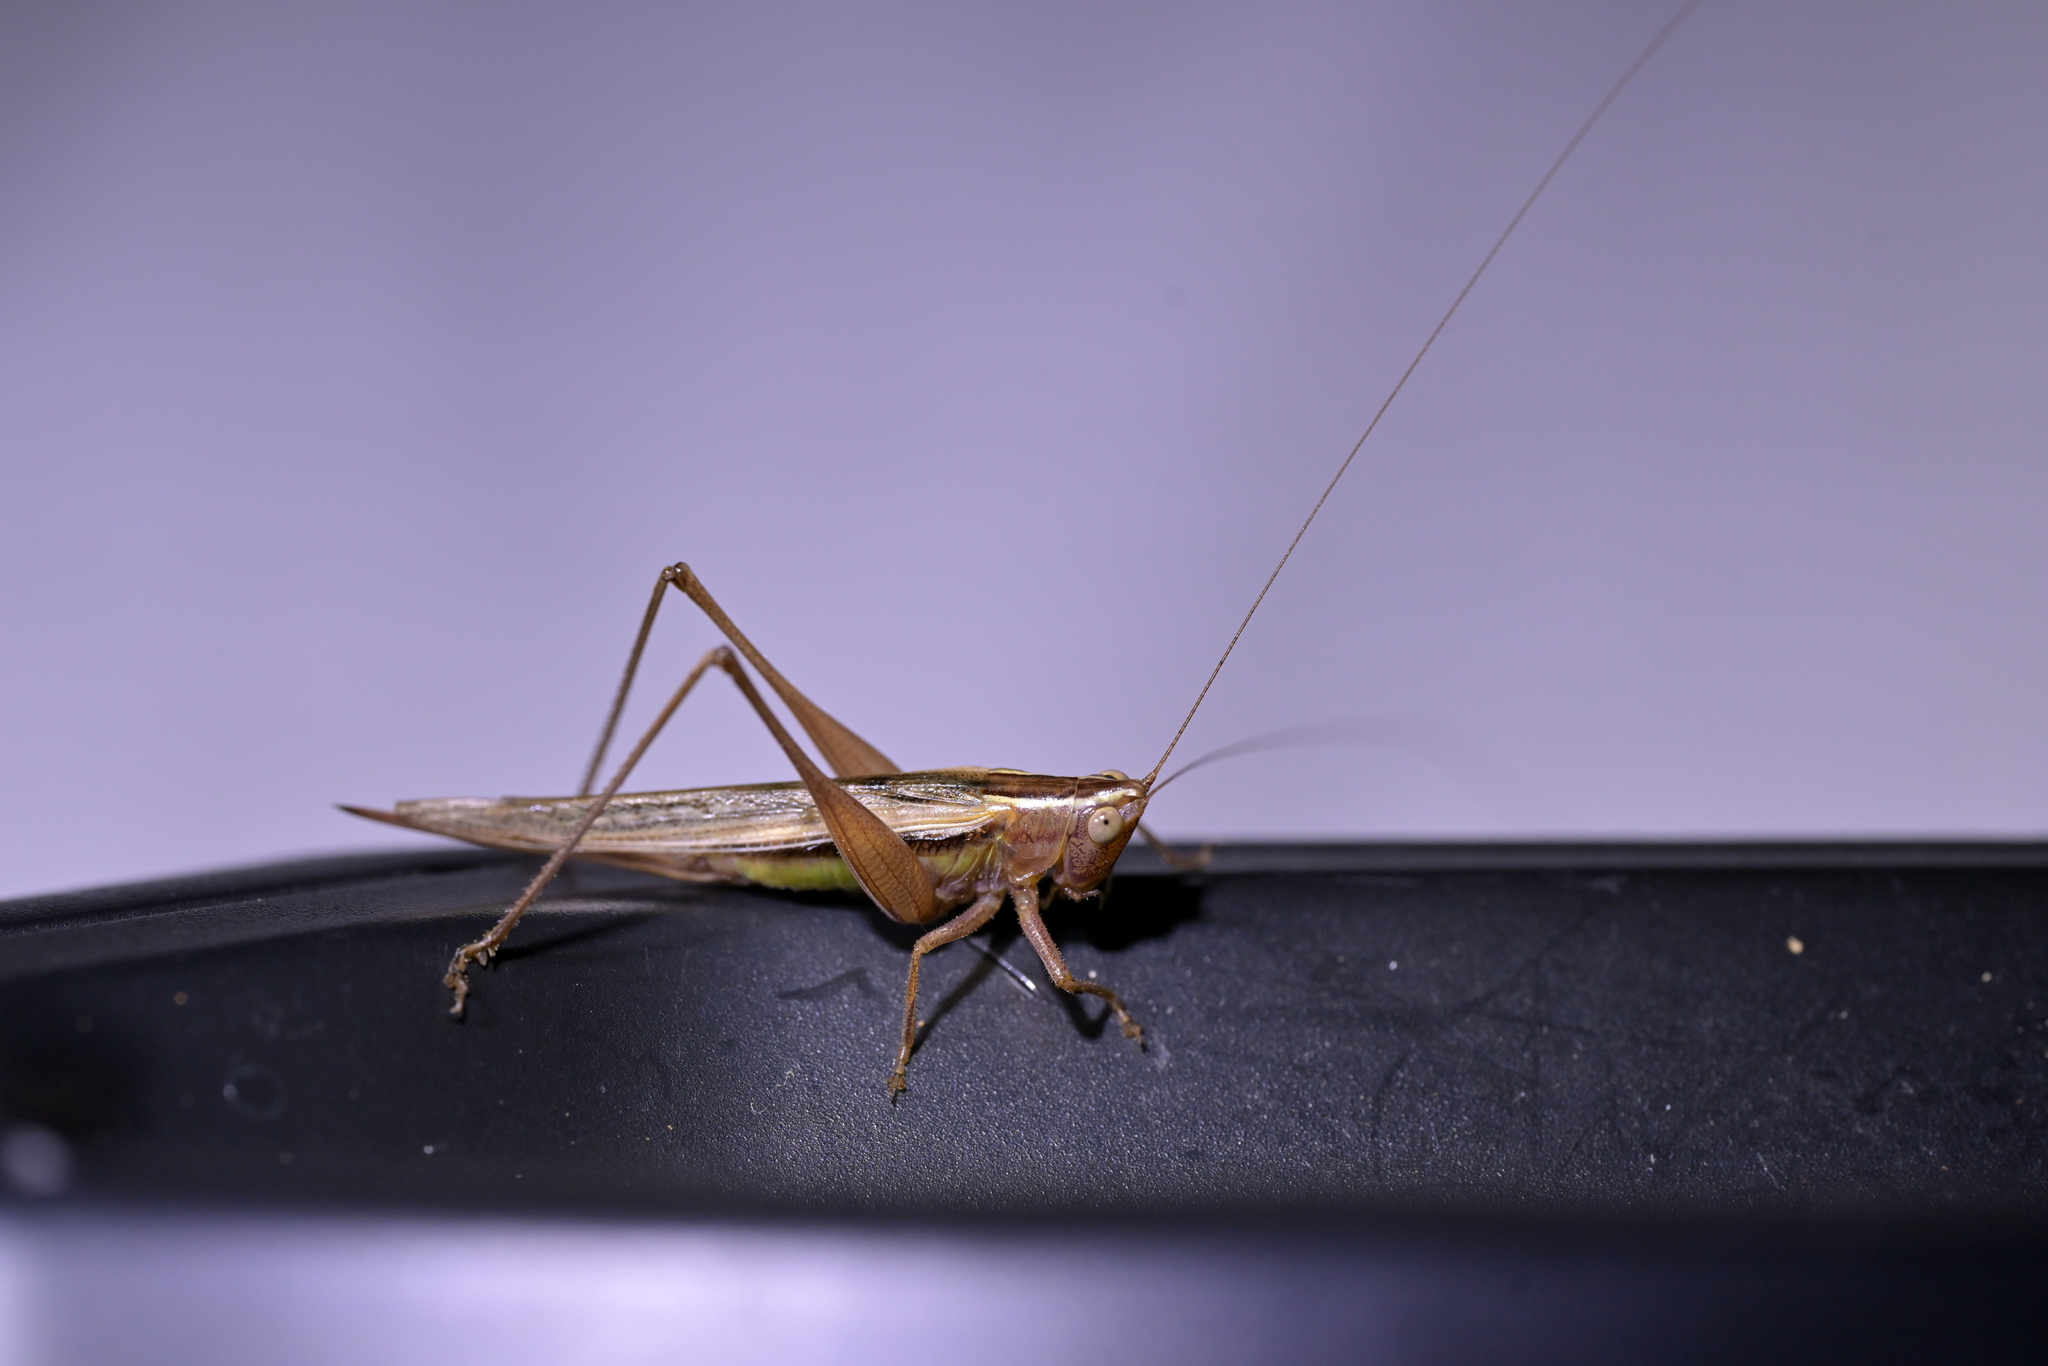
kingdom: Animalia
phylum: Arthropoda
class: Insecta
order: Orthoptera
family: Tettigoniidae
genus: Conocephalus
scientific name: Conocephalus albescens
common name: Whitish meadow katydid
